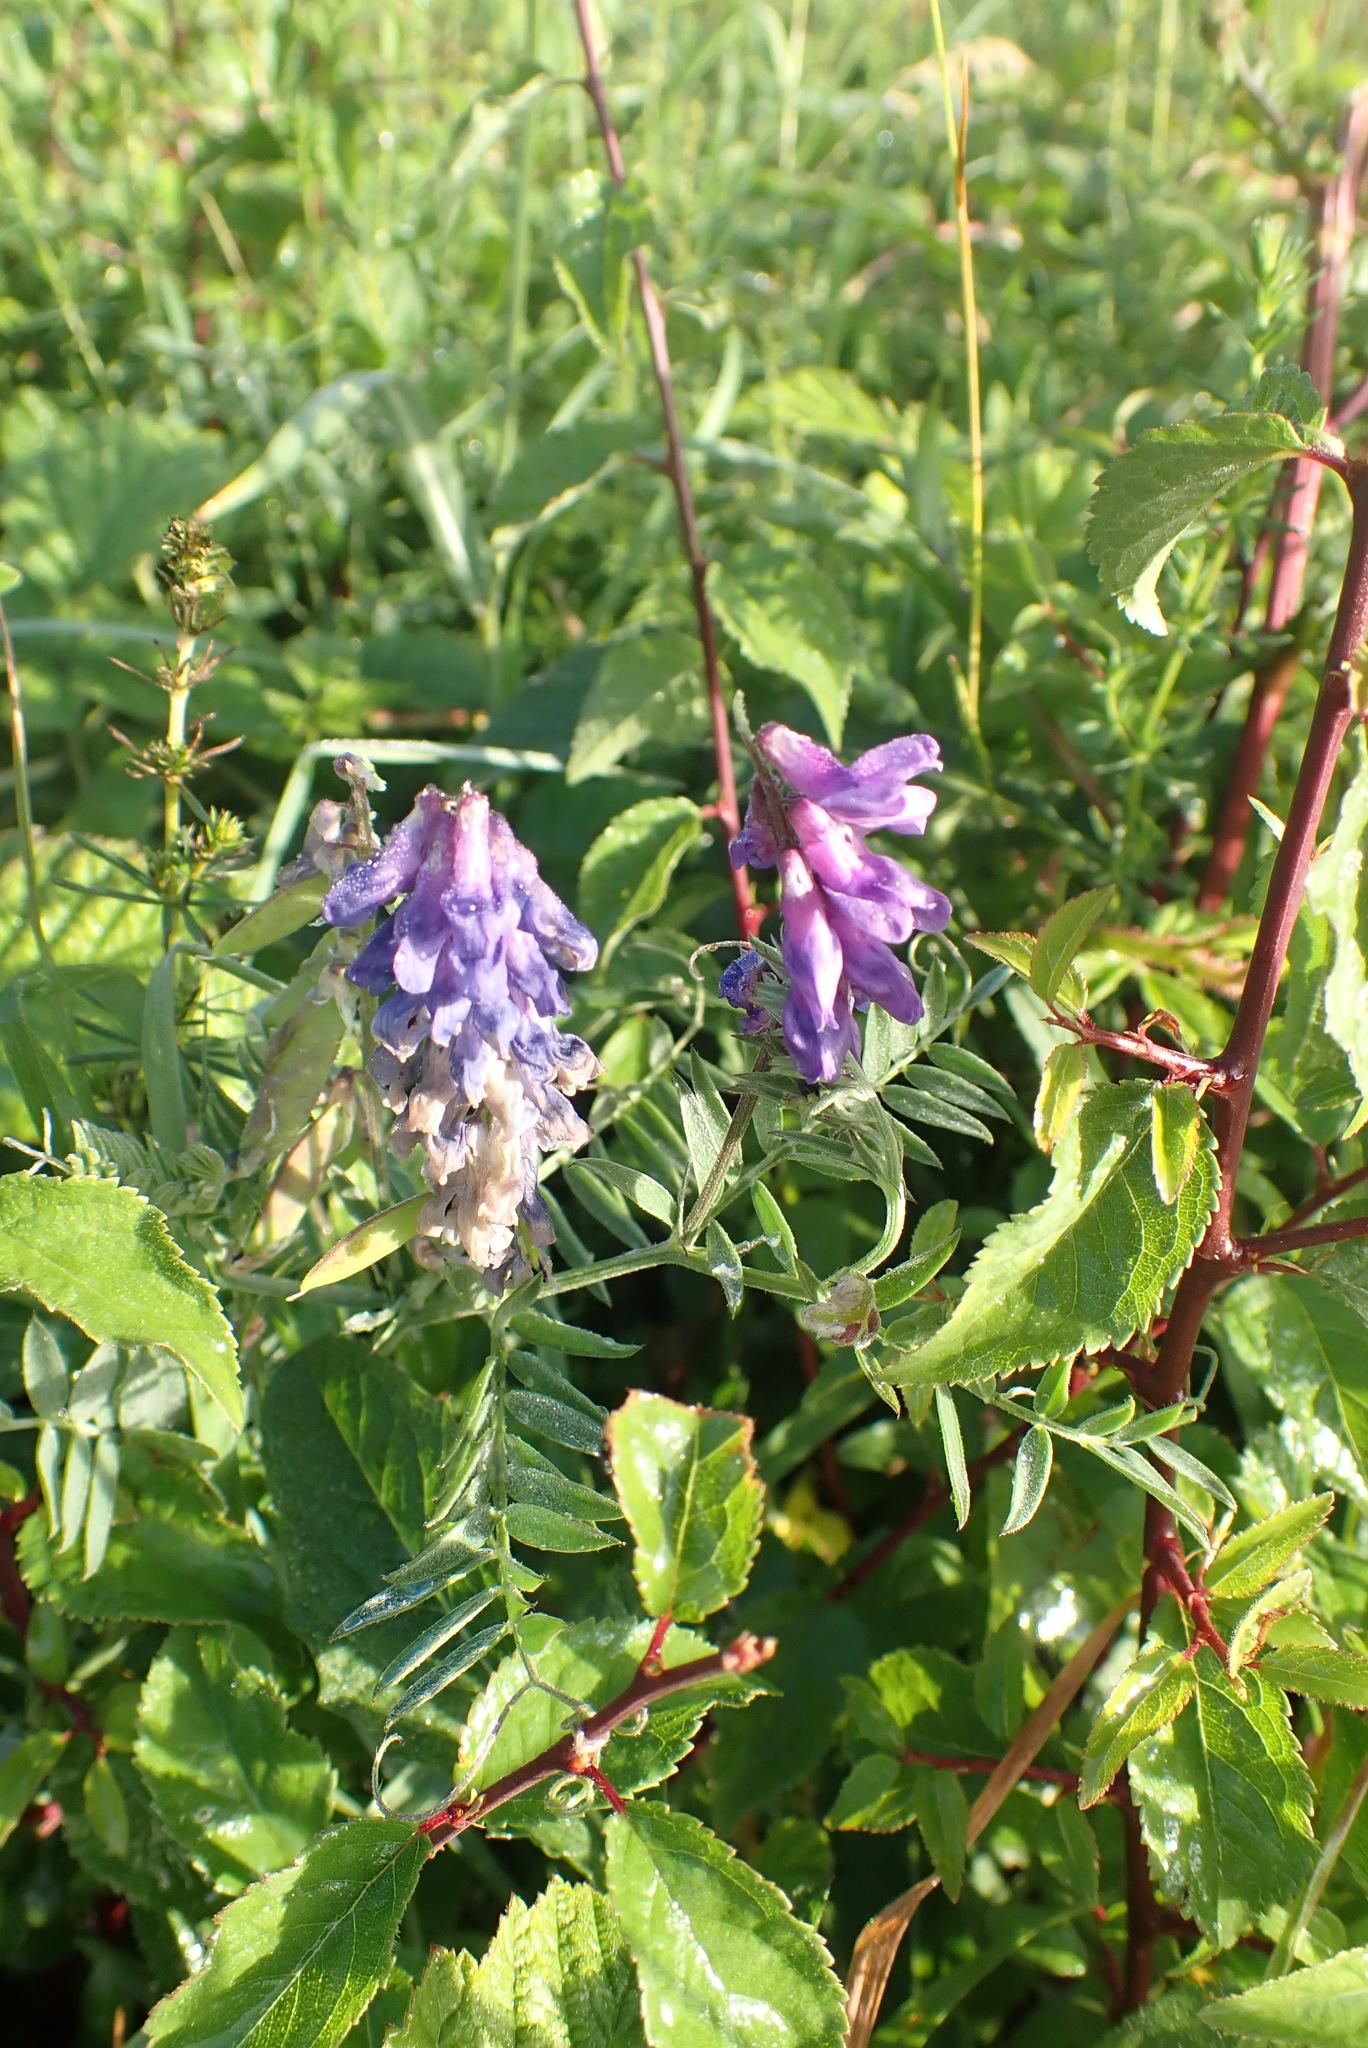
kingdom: Plantae
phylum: Tracheophyta
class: Magnoliopsida
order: Fabales
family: Fabaceae
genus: Vicia
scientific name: Vicia cracca
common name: Bird vetch
